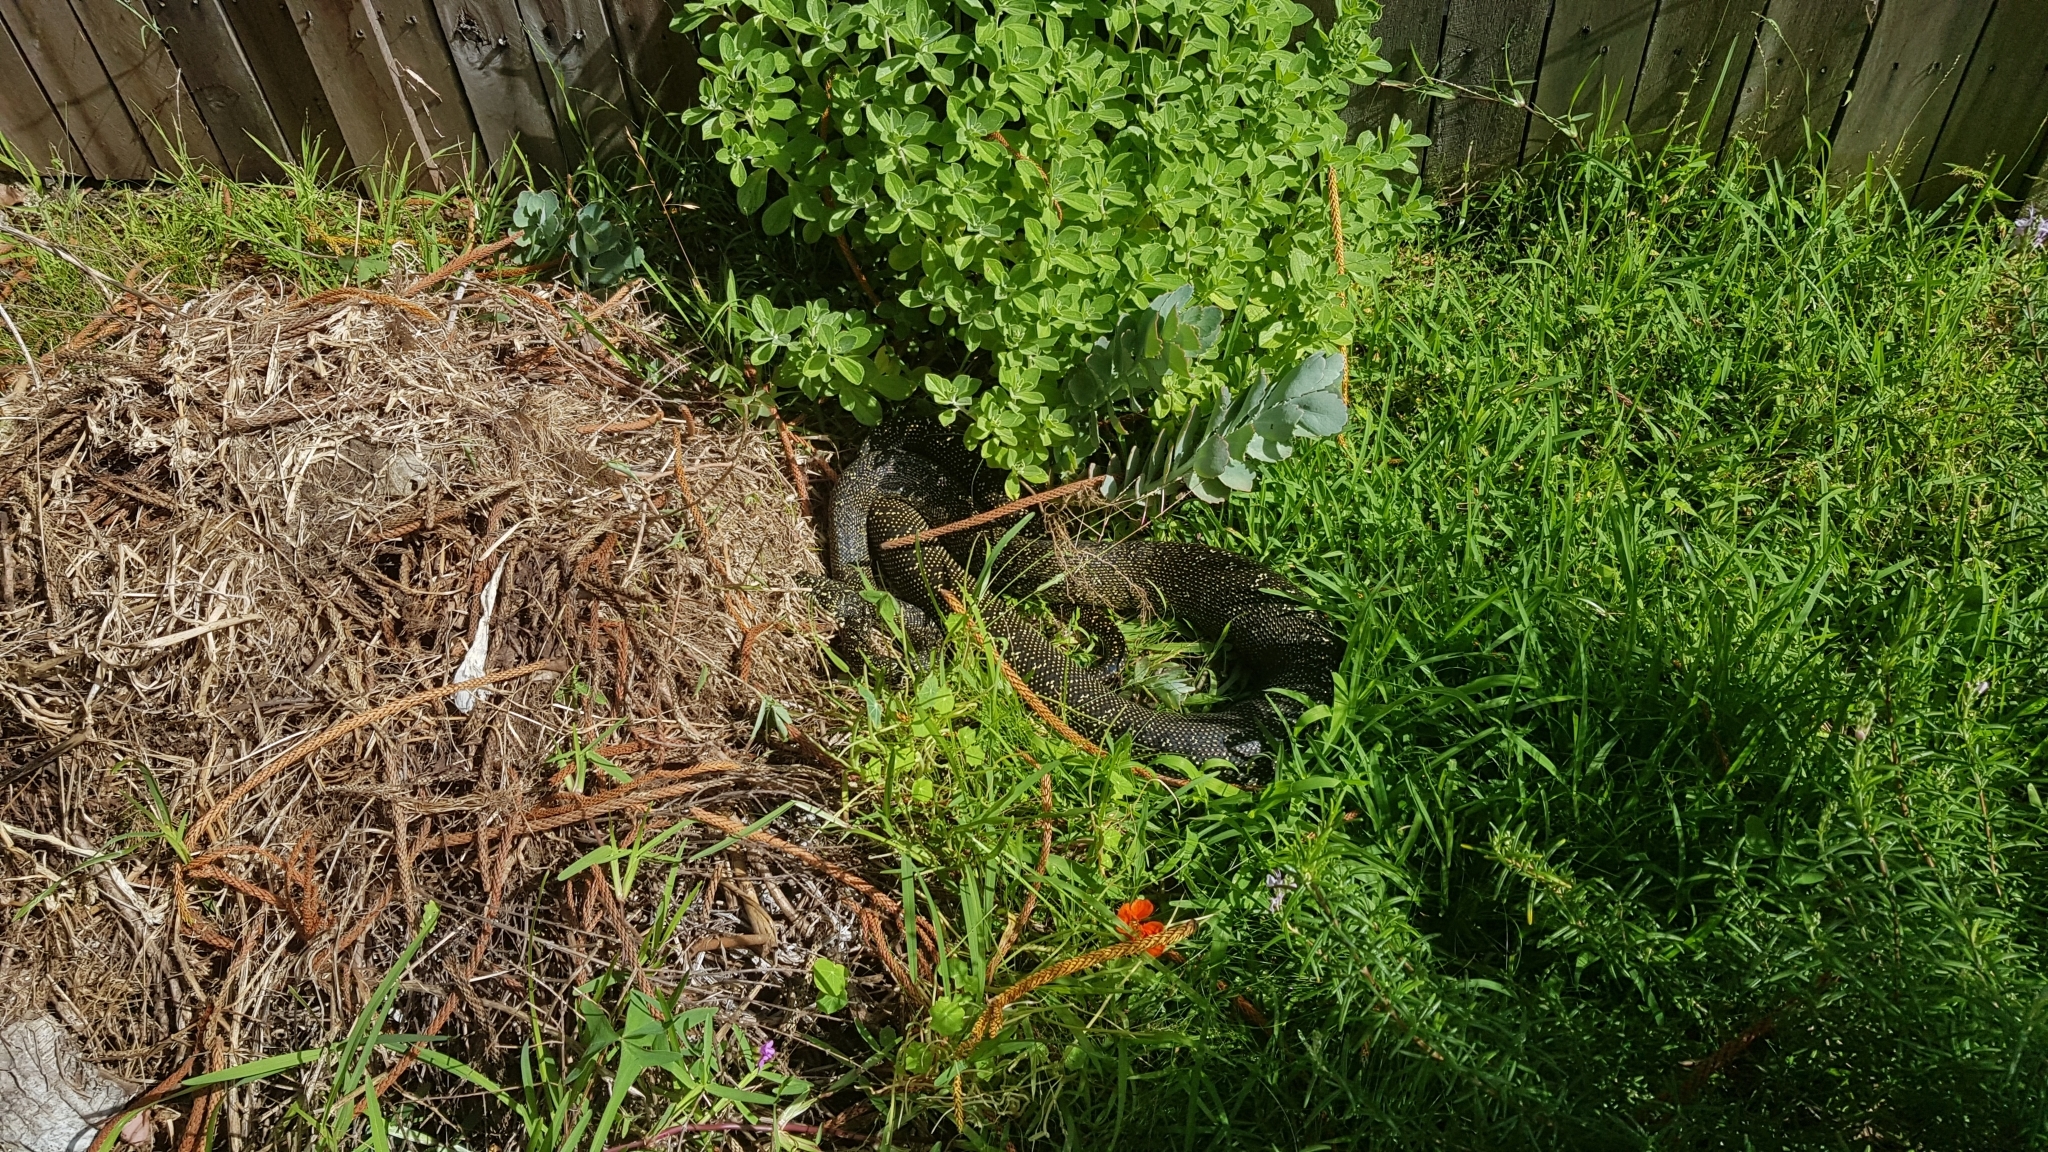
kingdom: Animalia
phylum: Chordata
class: Squamata
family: Pythonidae
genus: Morelia
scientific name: Morelia spilota
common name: Carpet python
